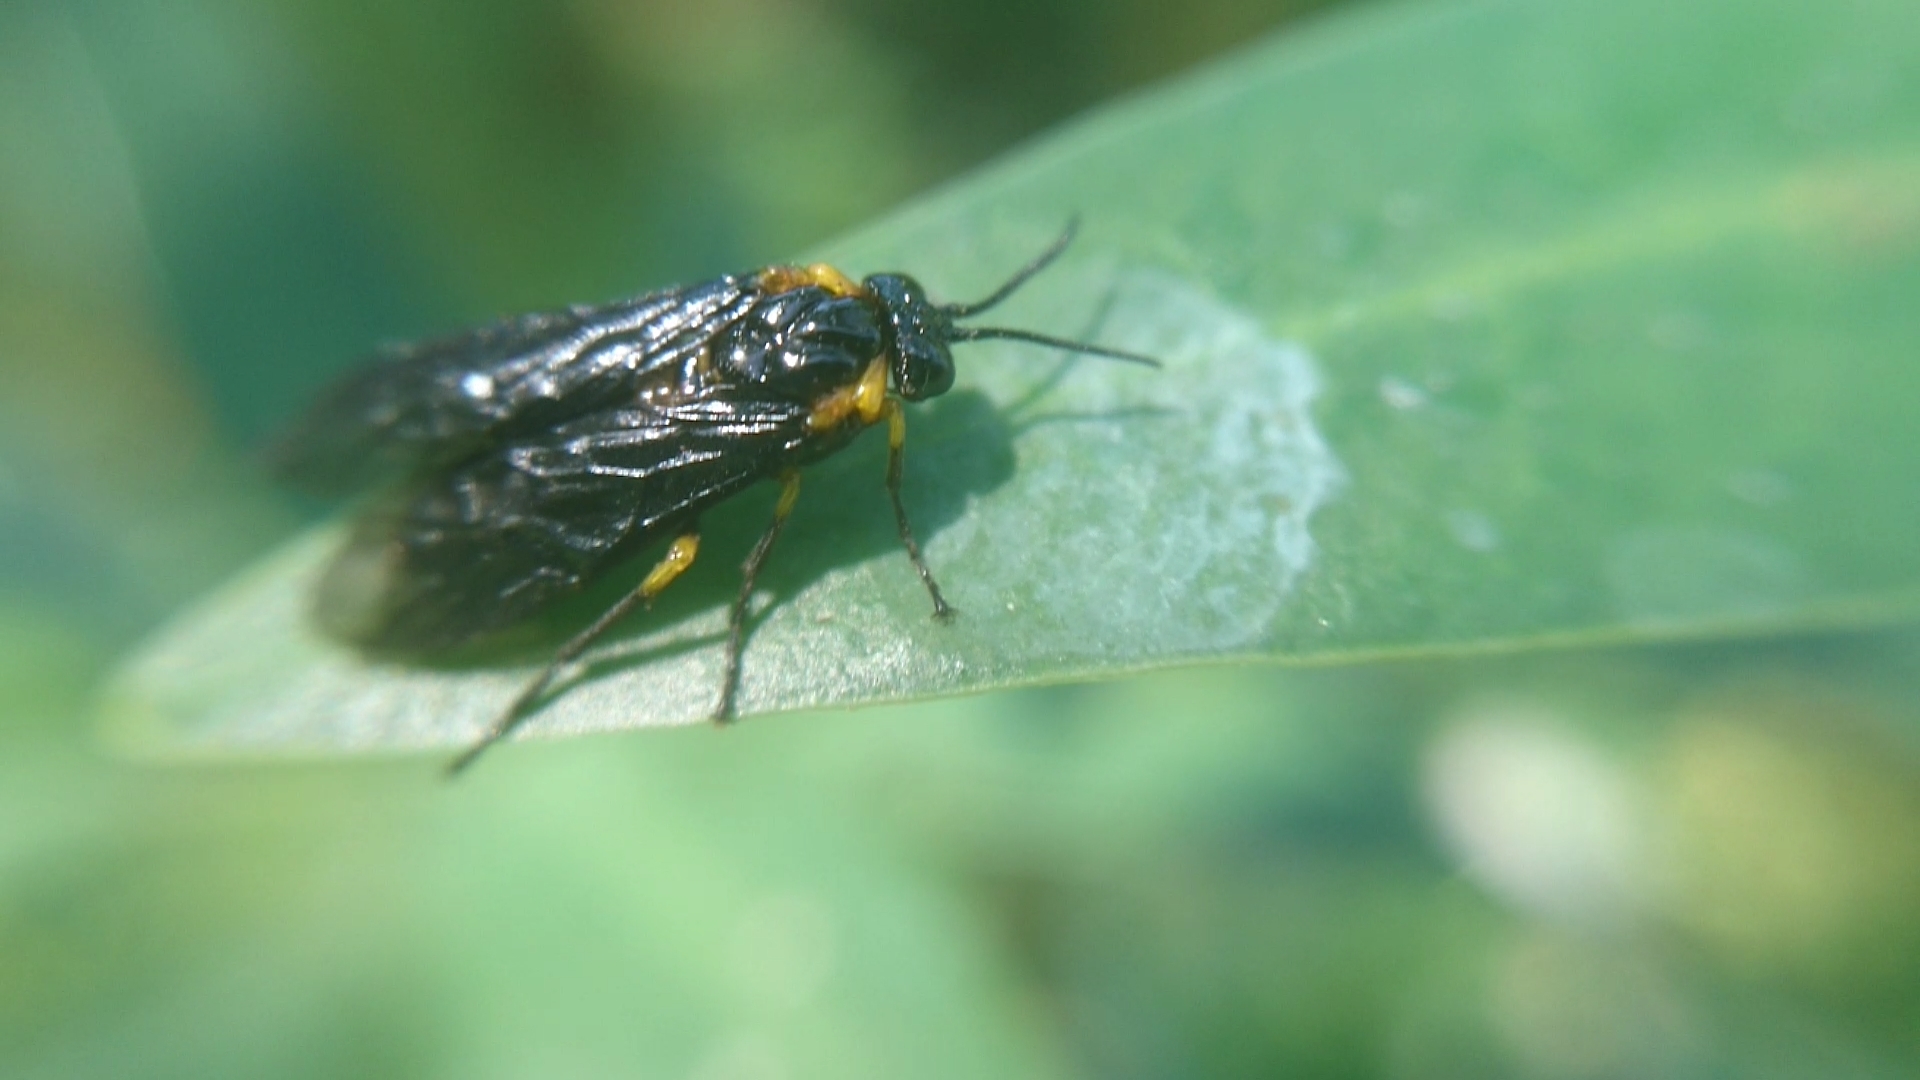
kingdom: Animalia
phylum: Arthropoda
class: Insecta
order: Hymenoptera
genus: Adurgoa
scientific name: Adurgoa
